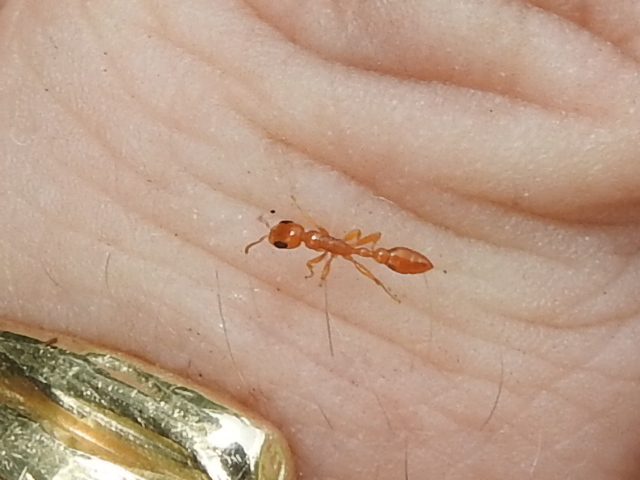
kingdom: Animalia
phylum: Arthropoda
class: Insecta
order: Hymenoptera
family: Formicidae
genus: Pseudomyrmex
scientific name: Pseudomyrmex pallidus
